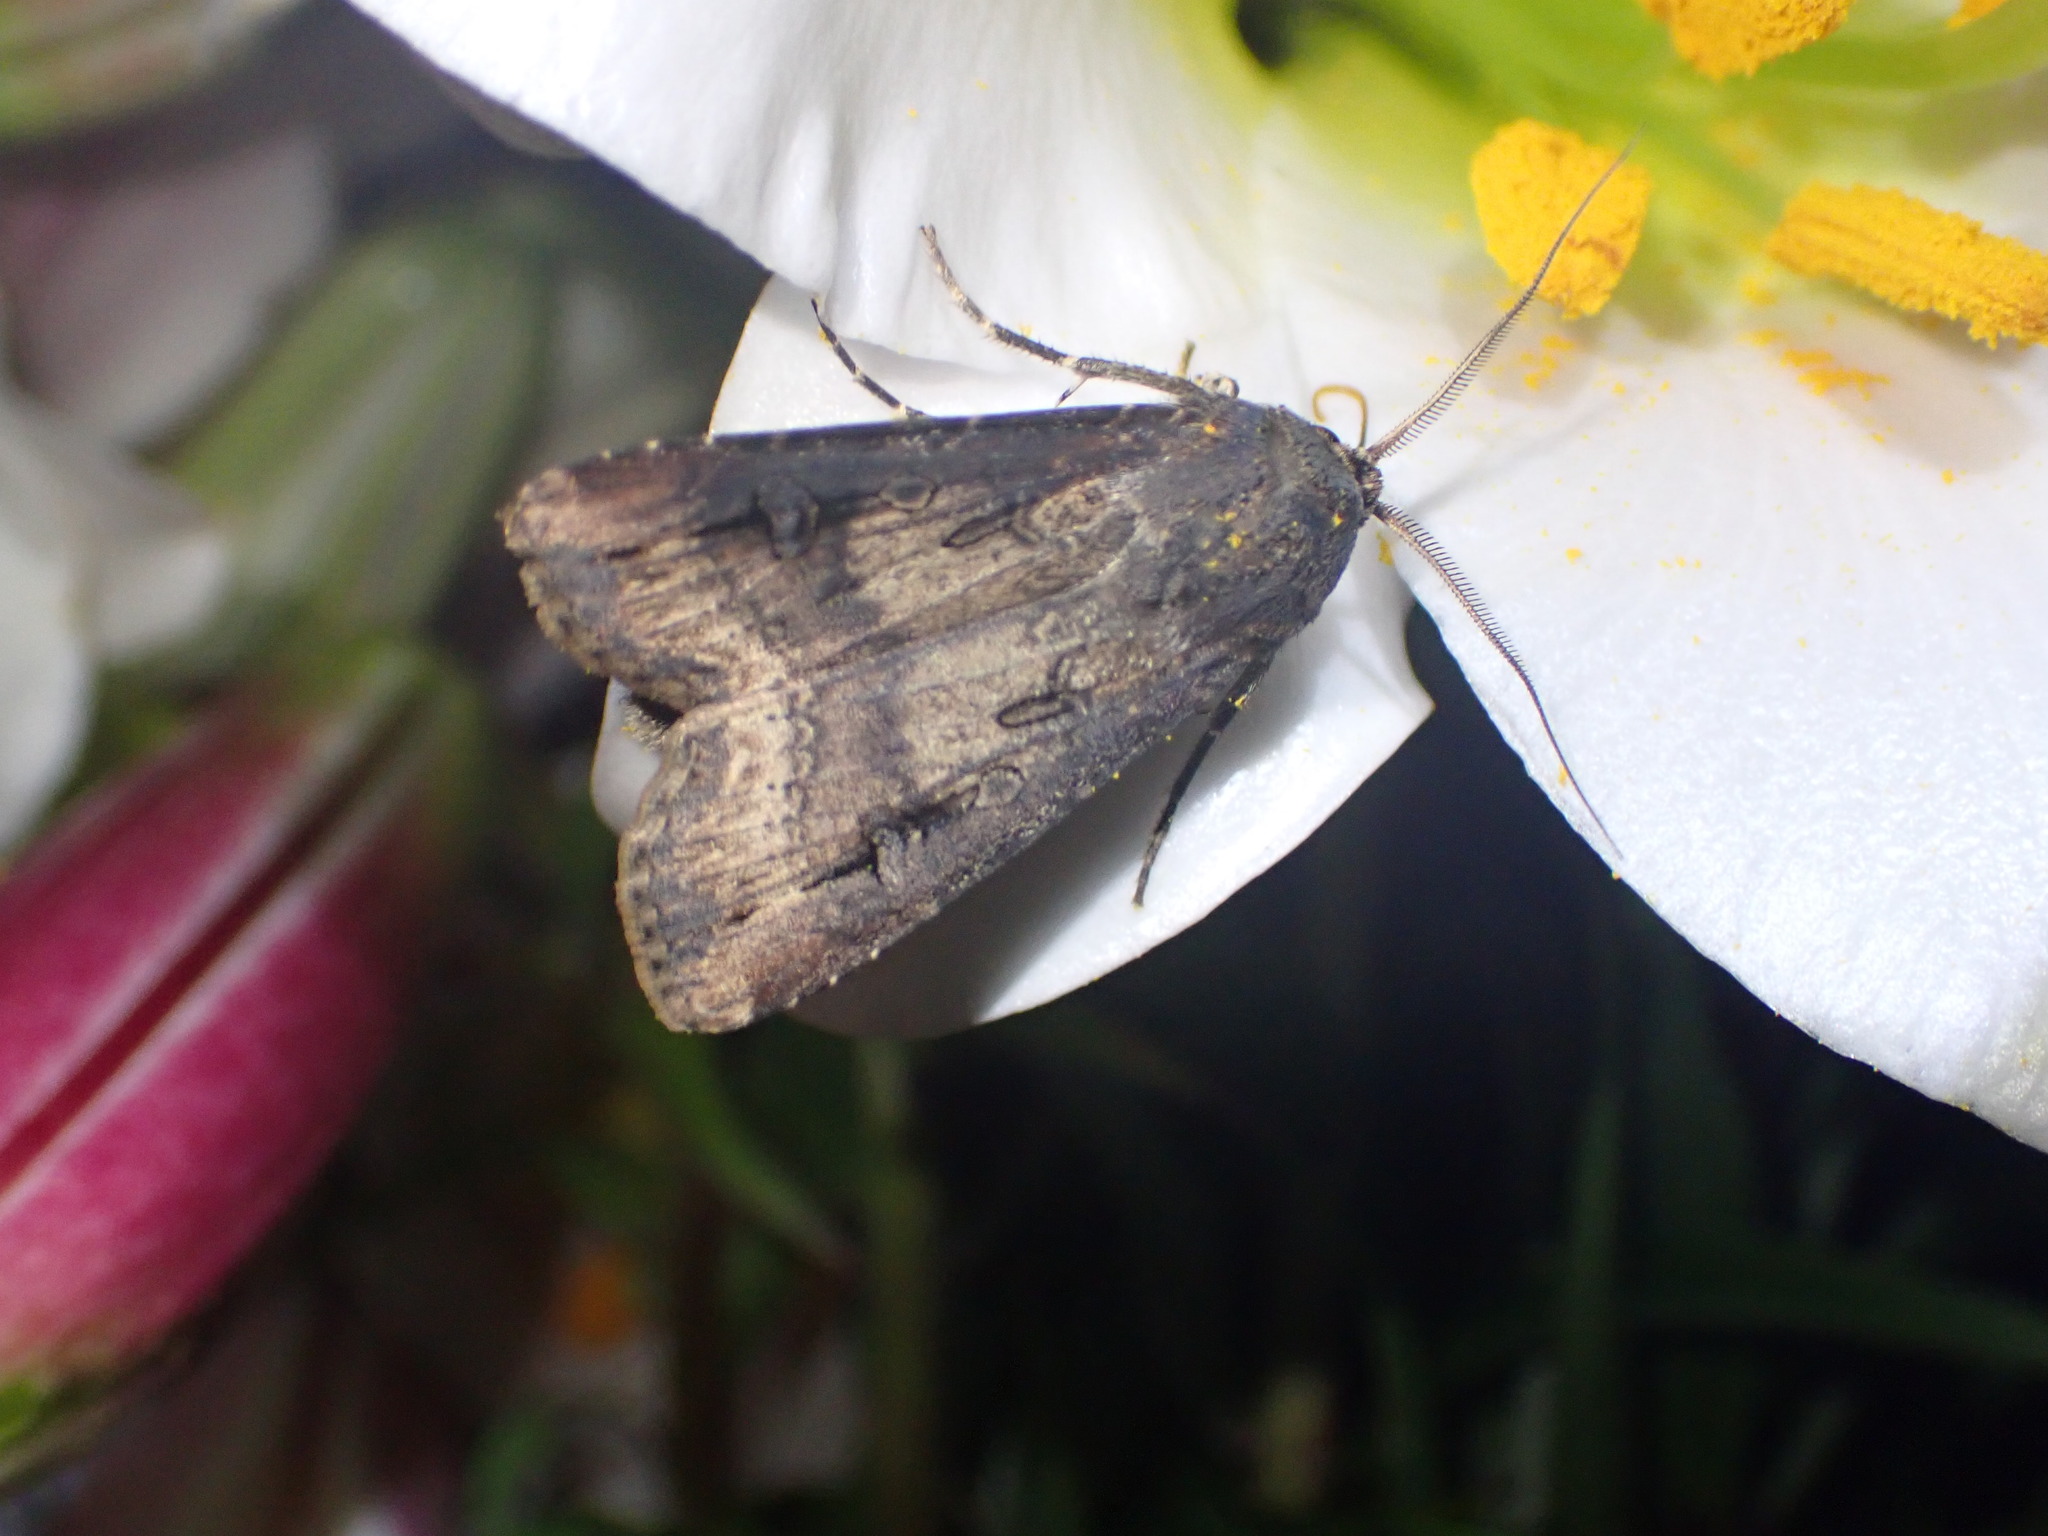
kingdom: Animalia
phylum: Arthropoda
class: Insecta
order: Lepidoptera
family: Noctuidae
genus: Agrotis
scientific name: Agrotis ipsilon
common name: Dark sword-grass
